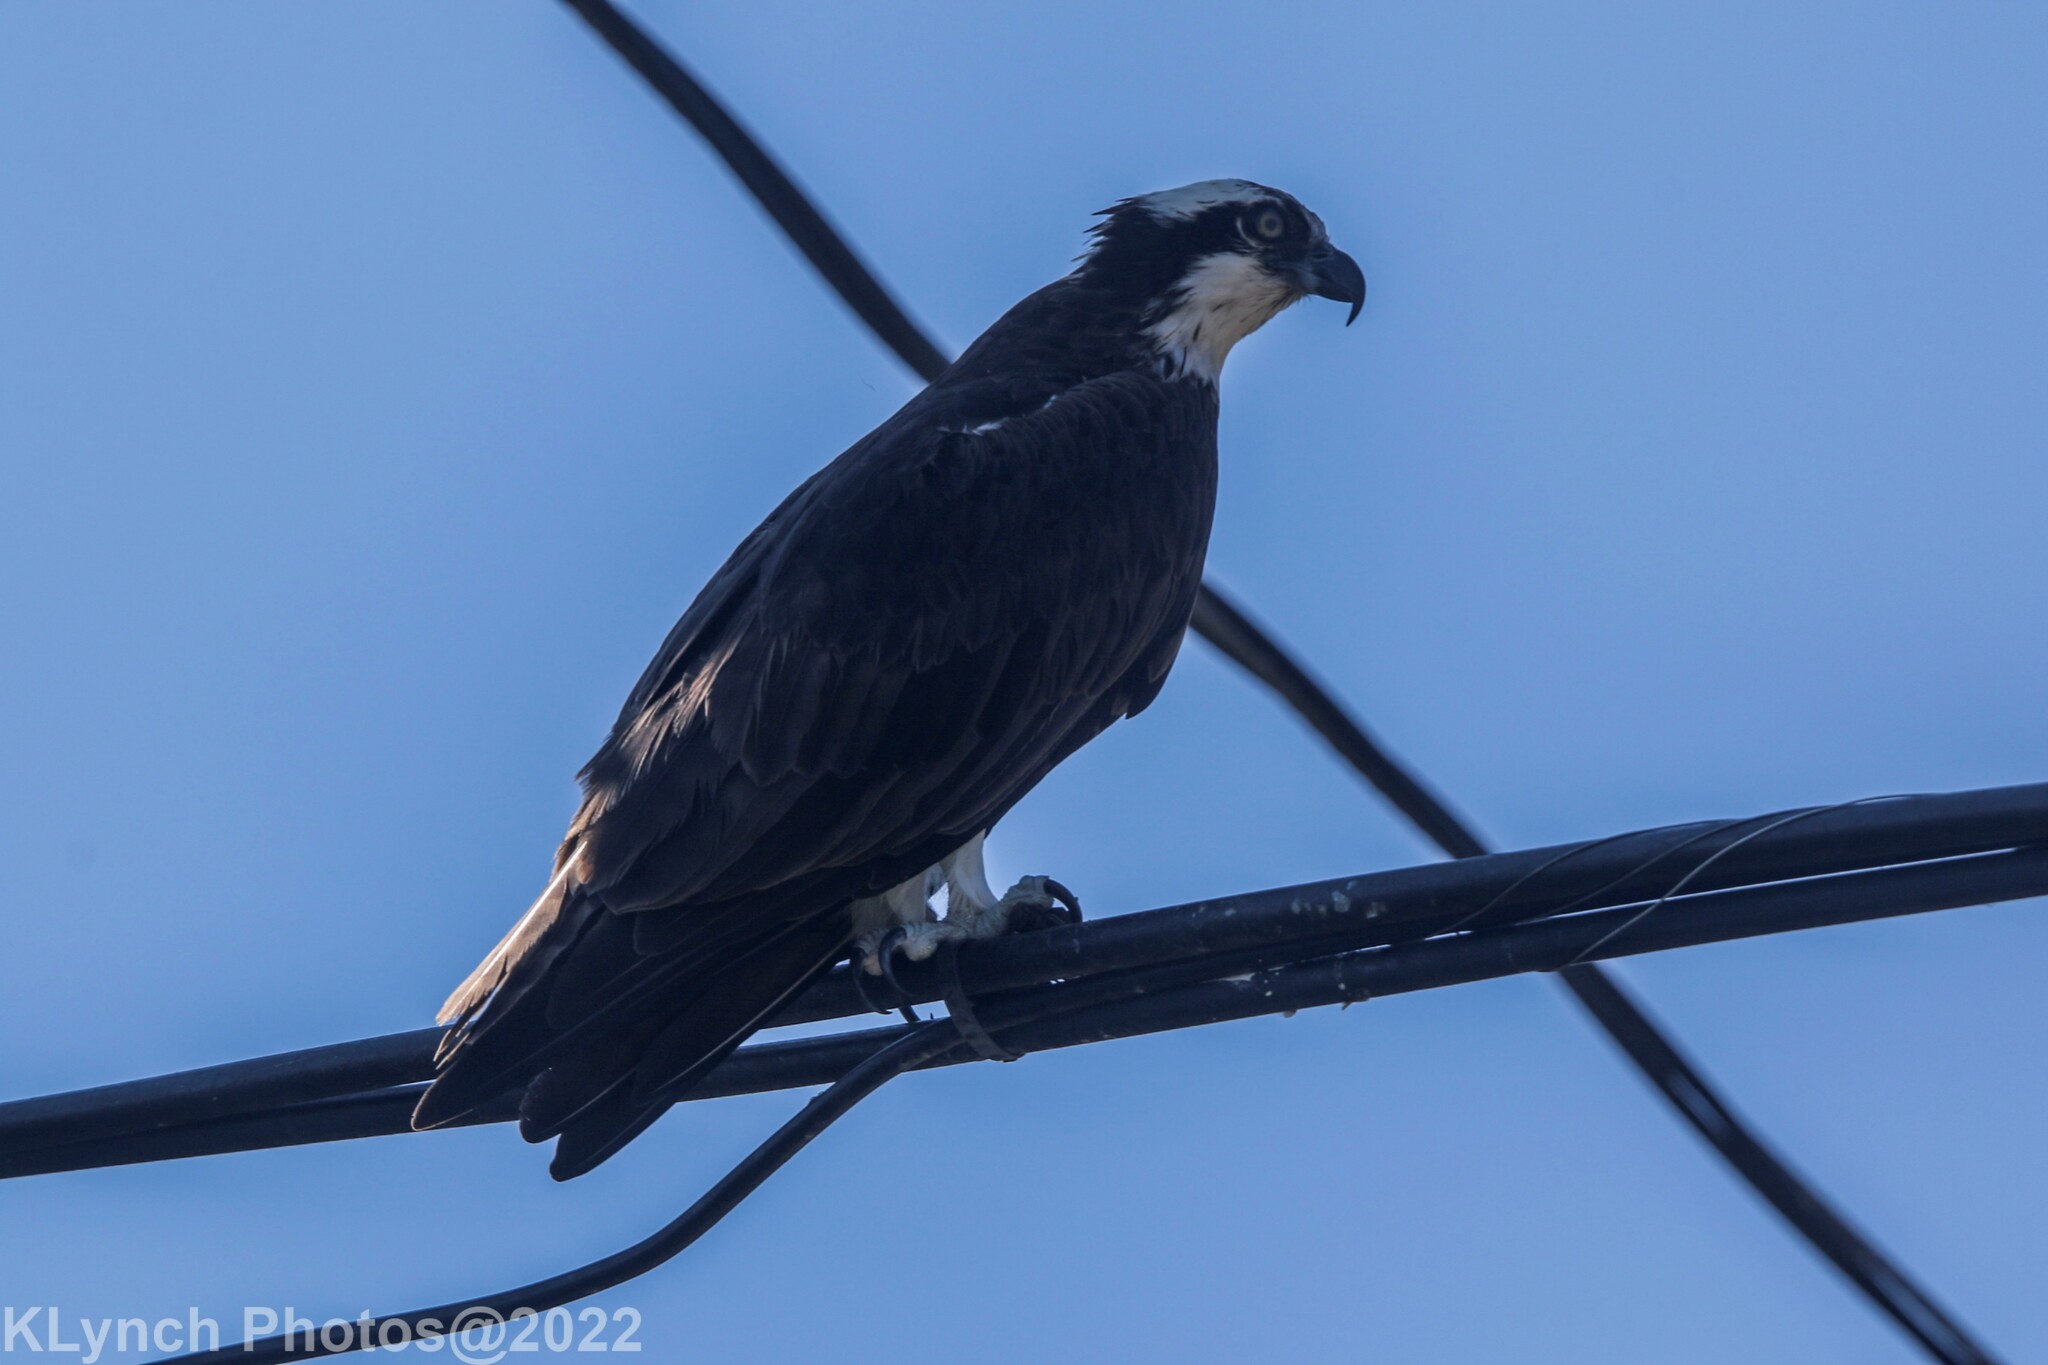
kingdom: Animalia
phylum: Chordata
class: Aves
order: Accipitriformes
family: Pandionidae
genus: Pandion
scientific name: Pandion haliaetus
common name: Osprey
